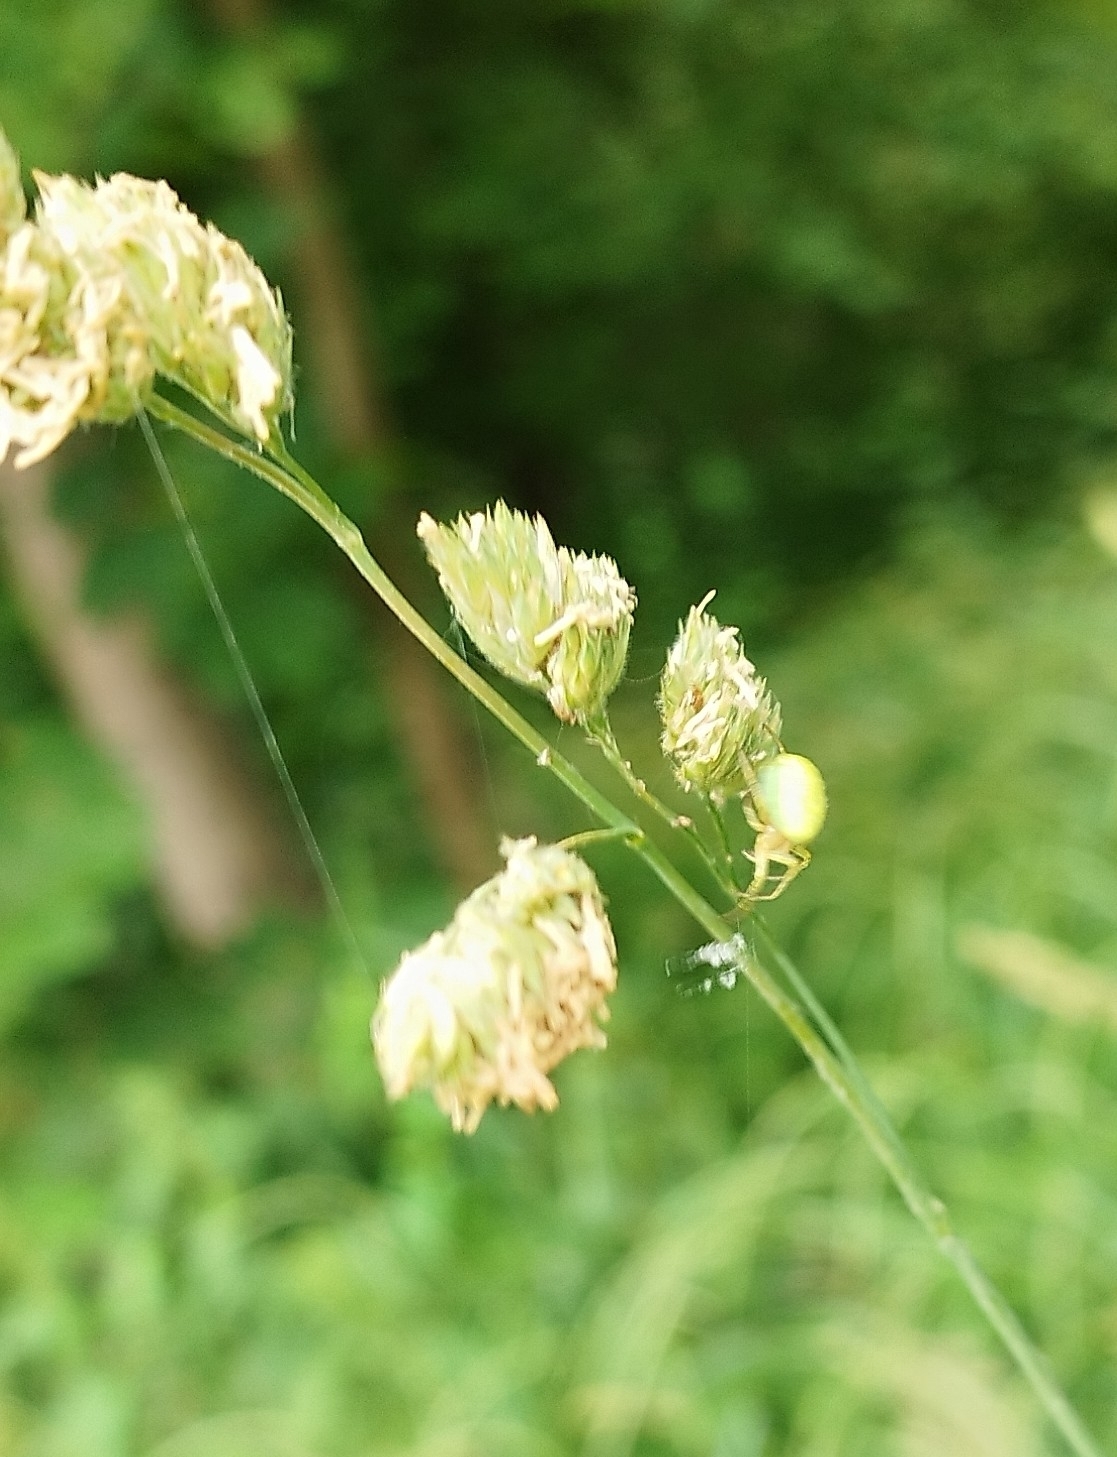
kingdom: Animalia
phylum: Arthropoda
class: Arachnida
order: Araneae
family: Araneidae
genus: Araniella
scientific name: Araniella
